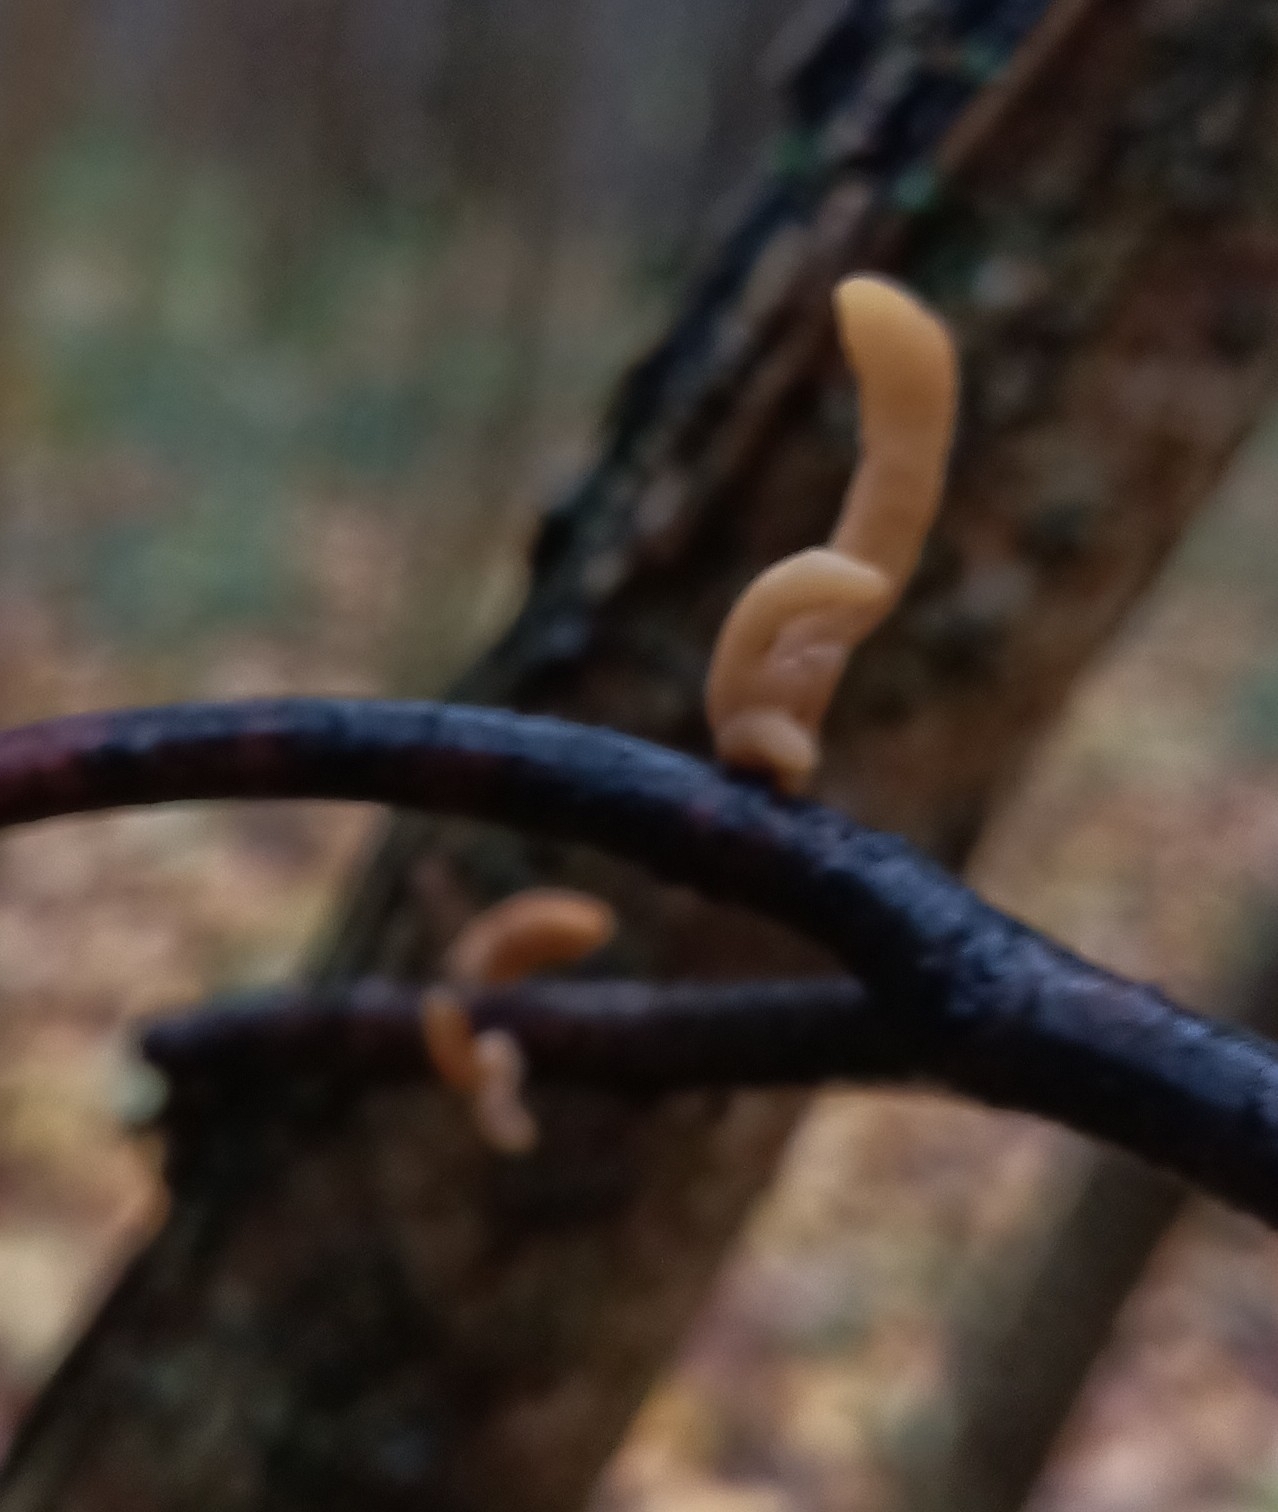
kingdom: Fungi
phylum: Basidiomycota
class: Agaricomycetes
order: Agaricales
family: Typhulaceae
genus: Typhula
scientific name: Typhula fistulosa
